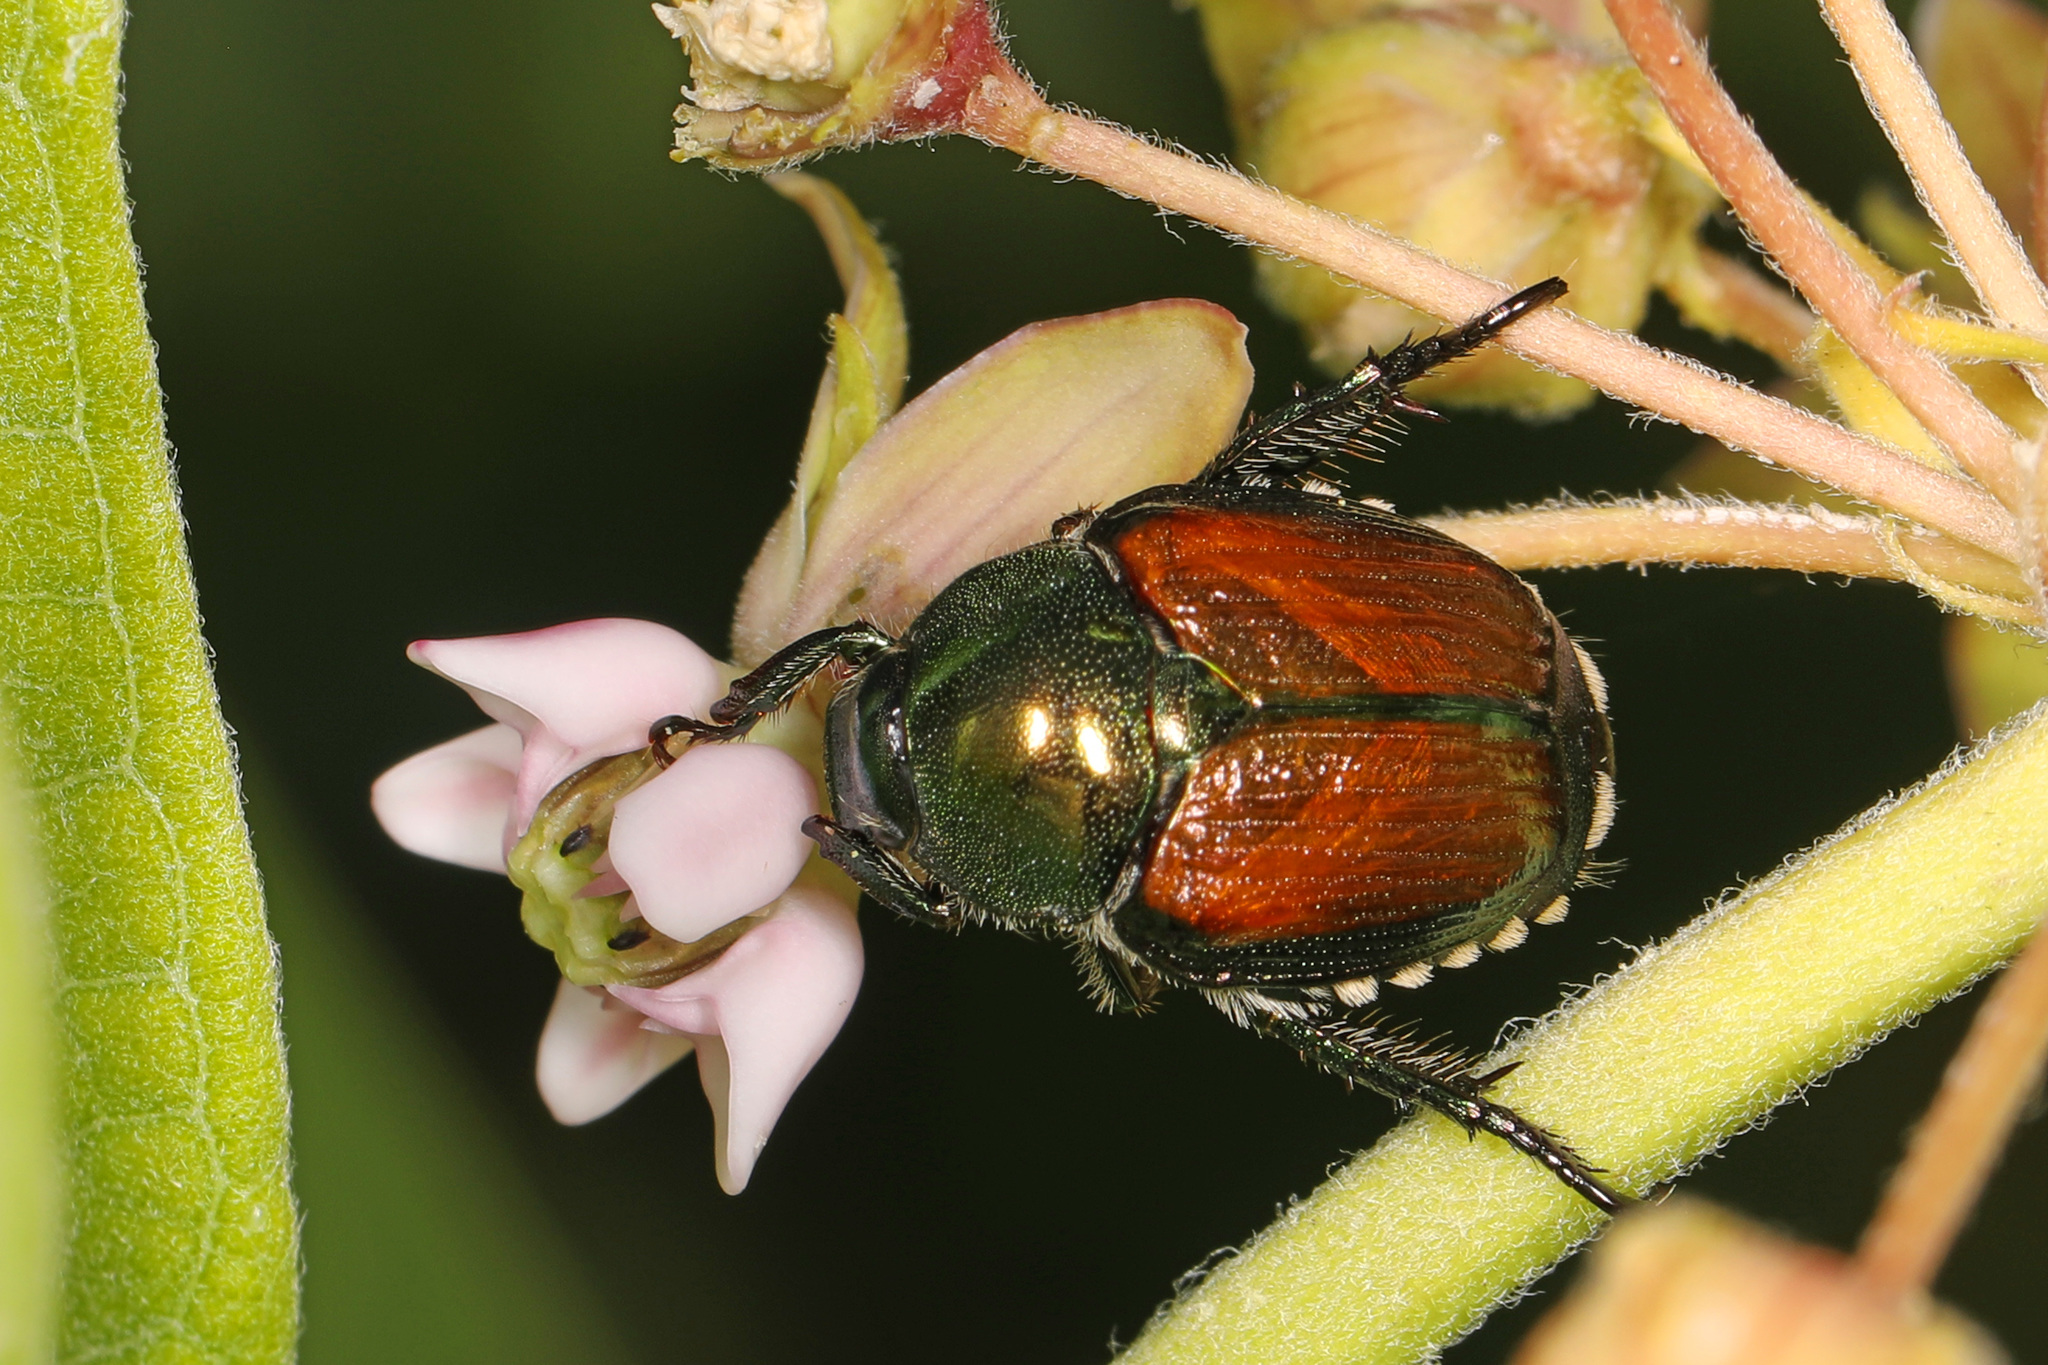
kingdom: Animalia
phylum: Arthropoda
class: Insecta
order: Coleoptera
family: Scarabaeidae
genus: Popillia
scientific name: Popillia japonica
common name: Japanese beetle
